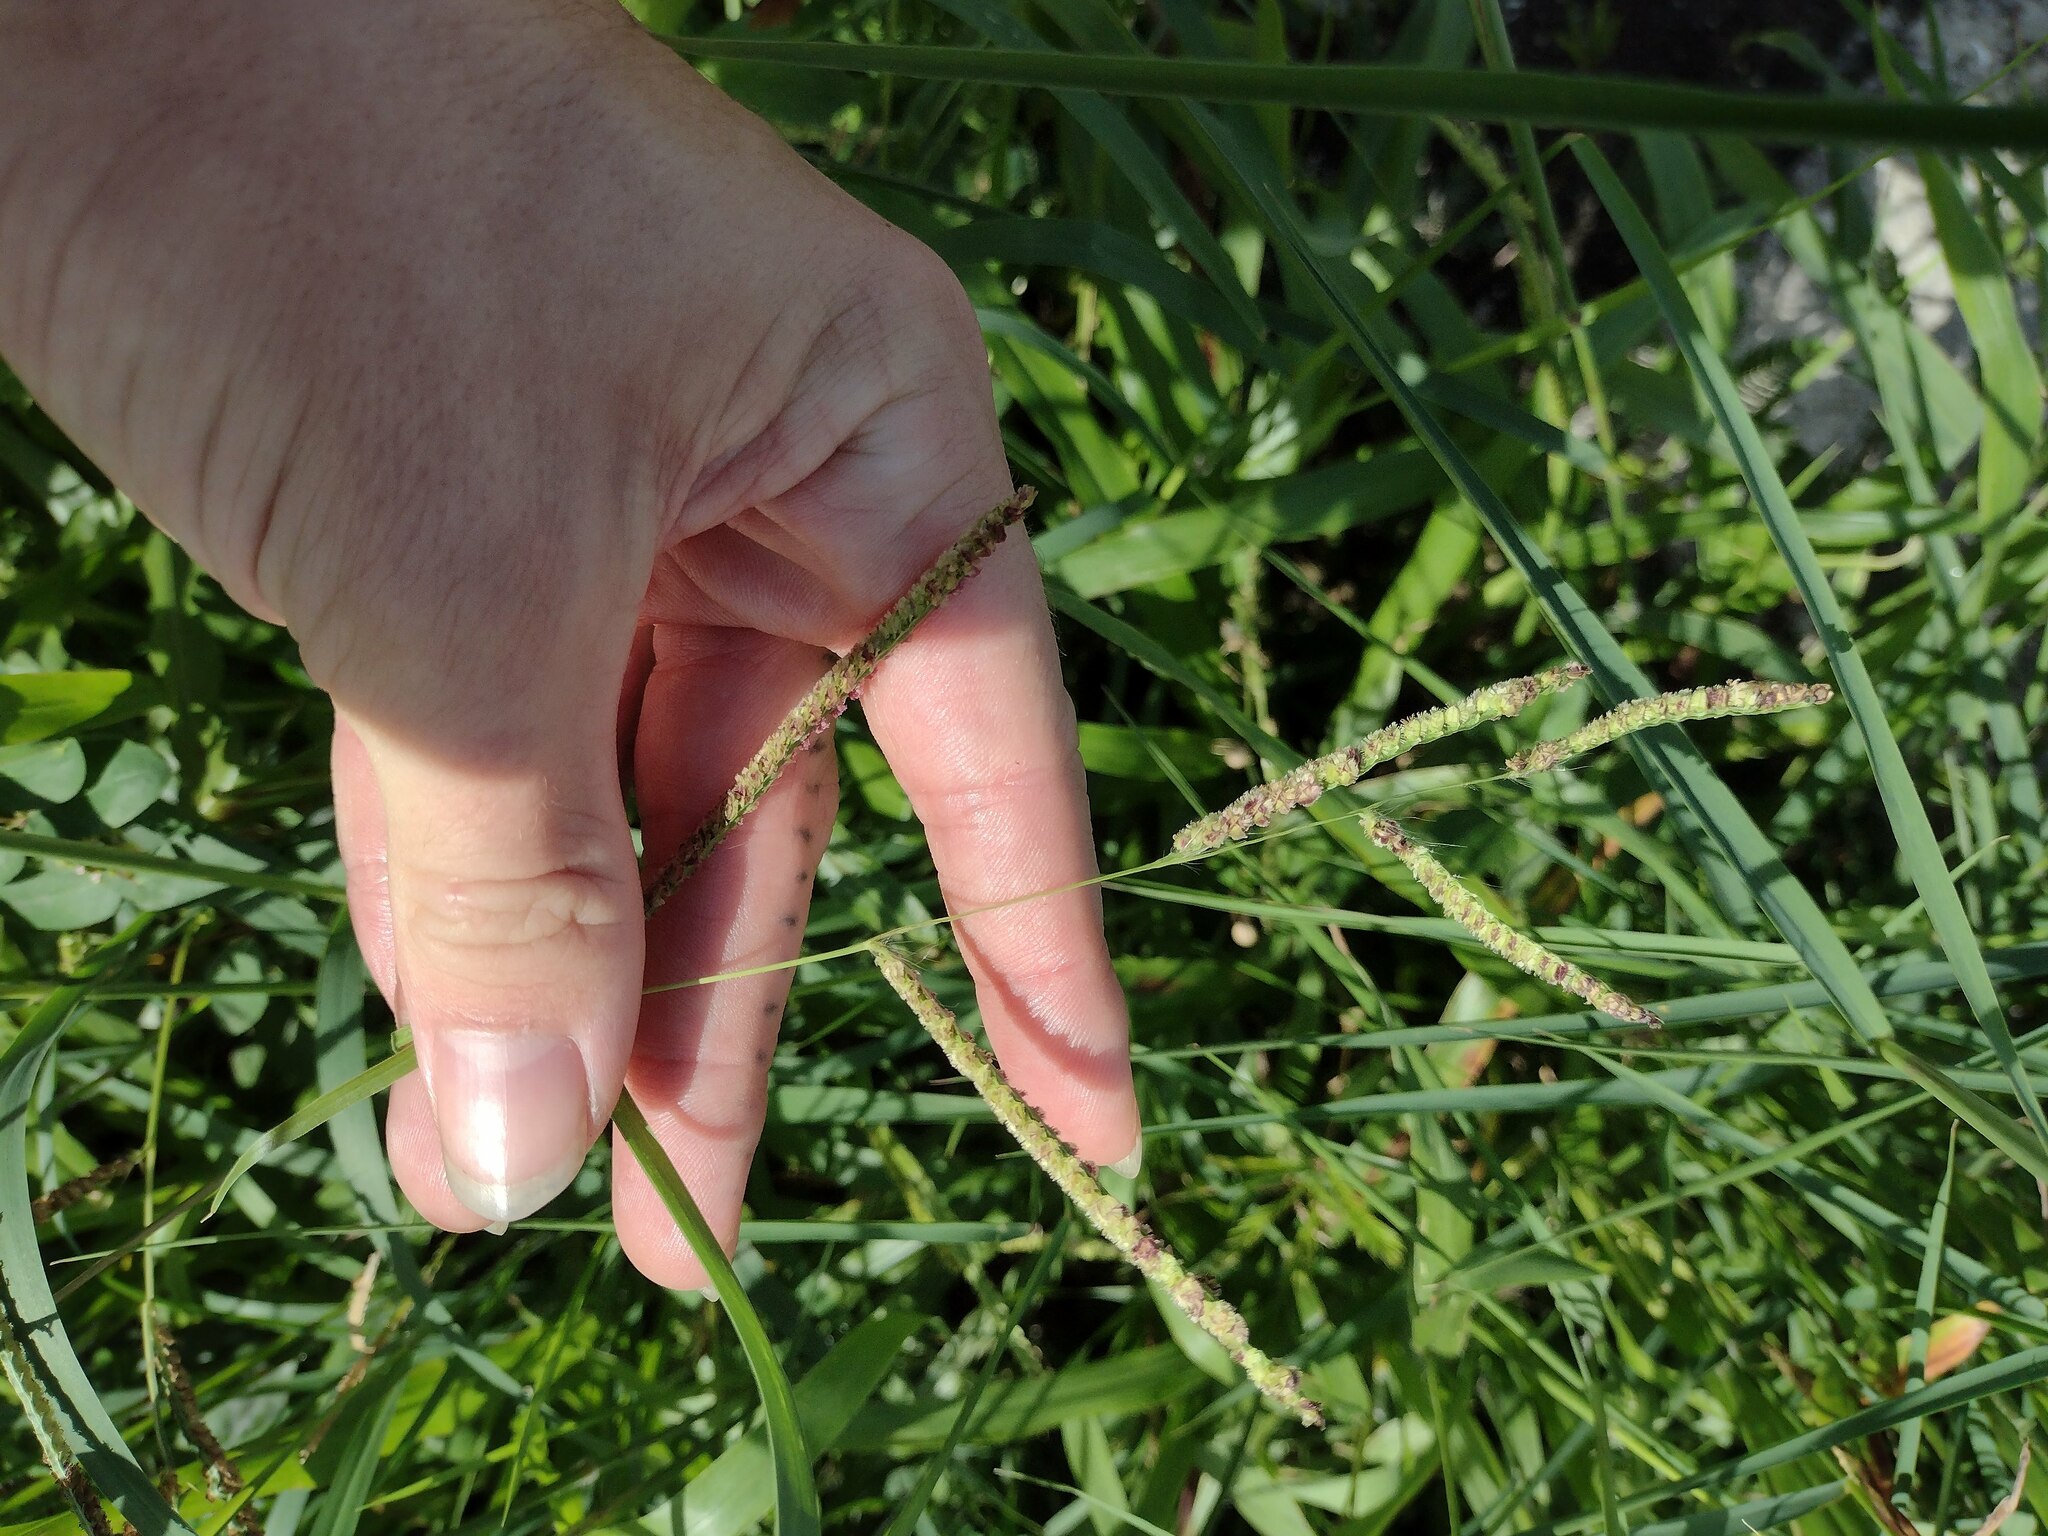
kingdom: Plantae
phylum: Tracheophyta
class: Liliopsida
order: Poales
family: Poaceae
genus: Paspalum
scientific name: Paspalum fimbriatum
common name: Panama crowngrass
